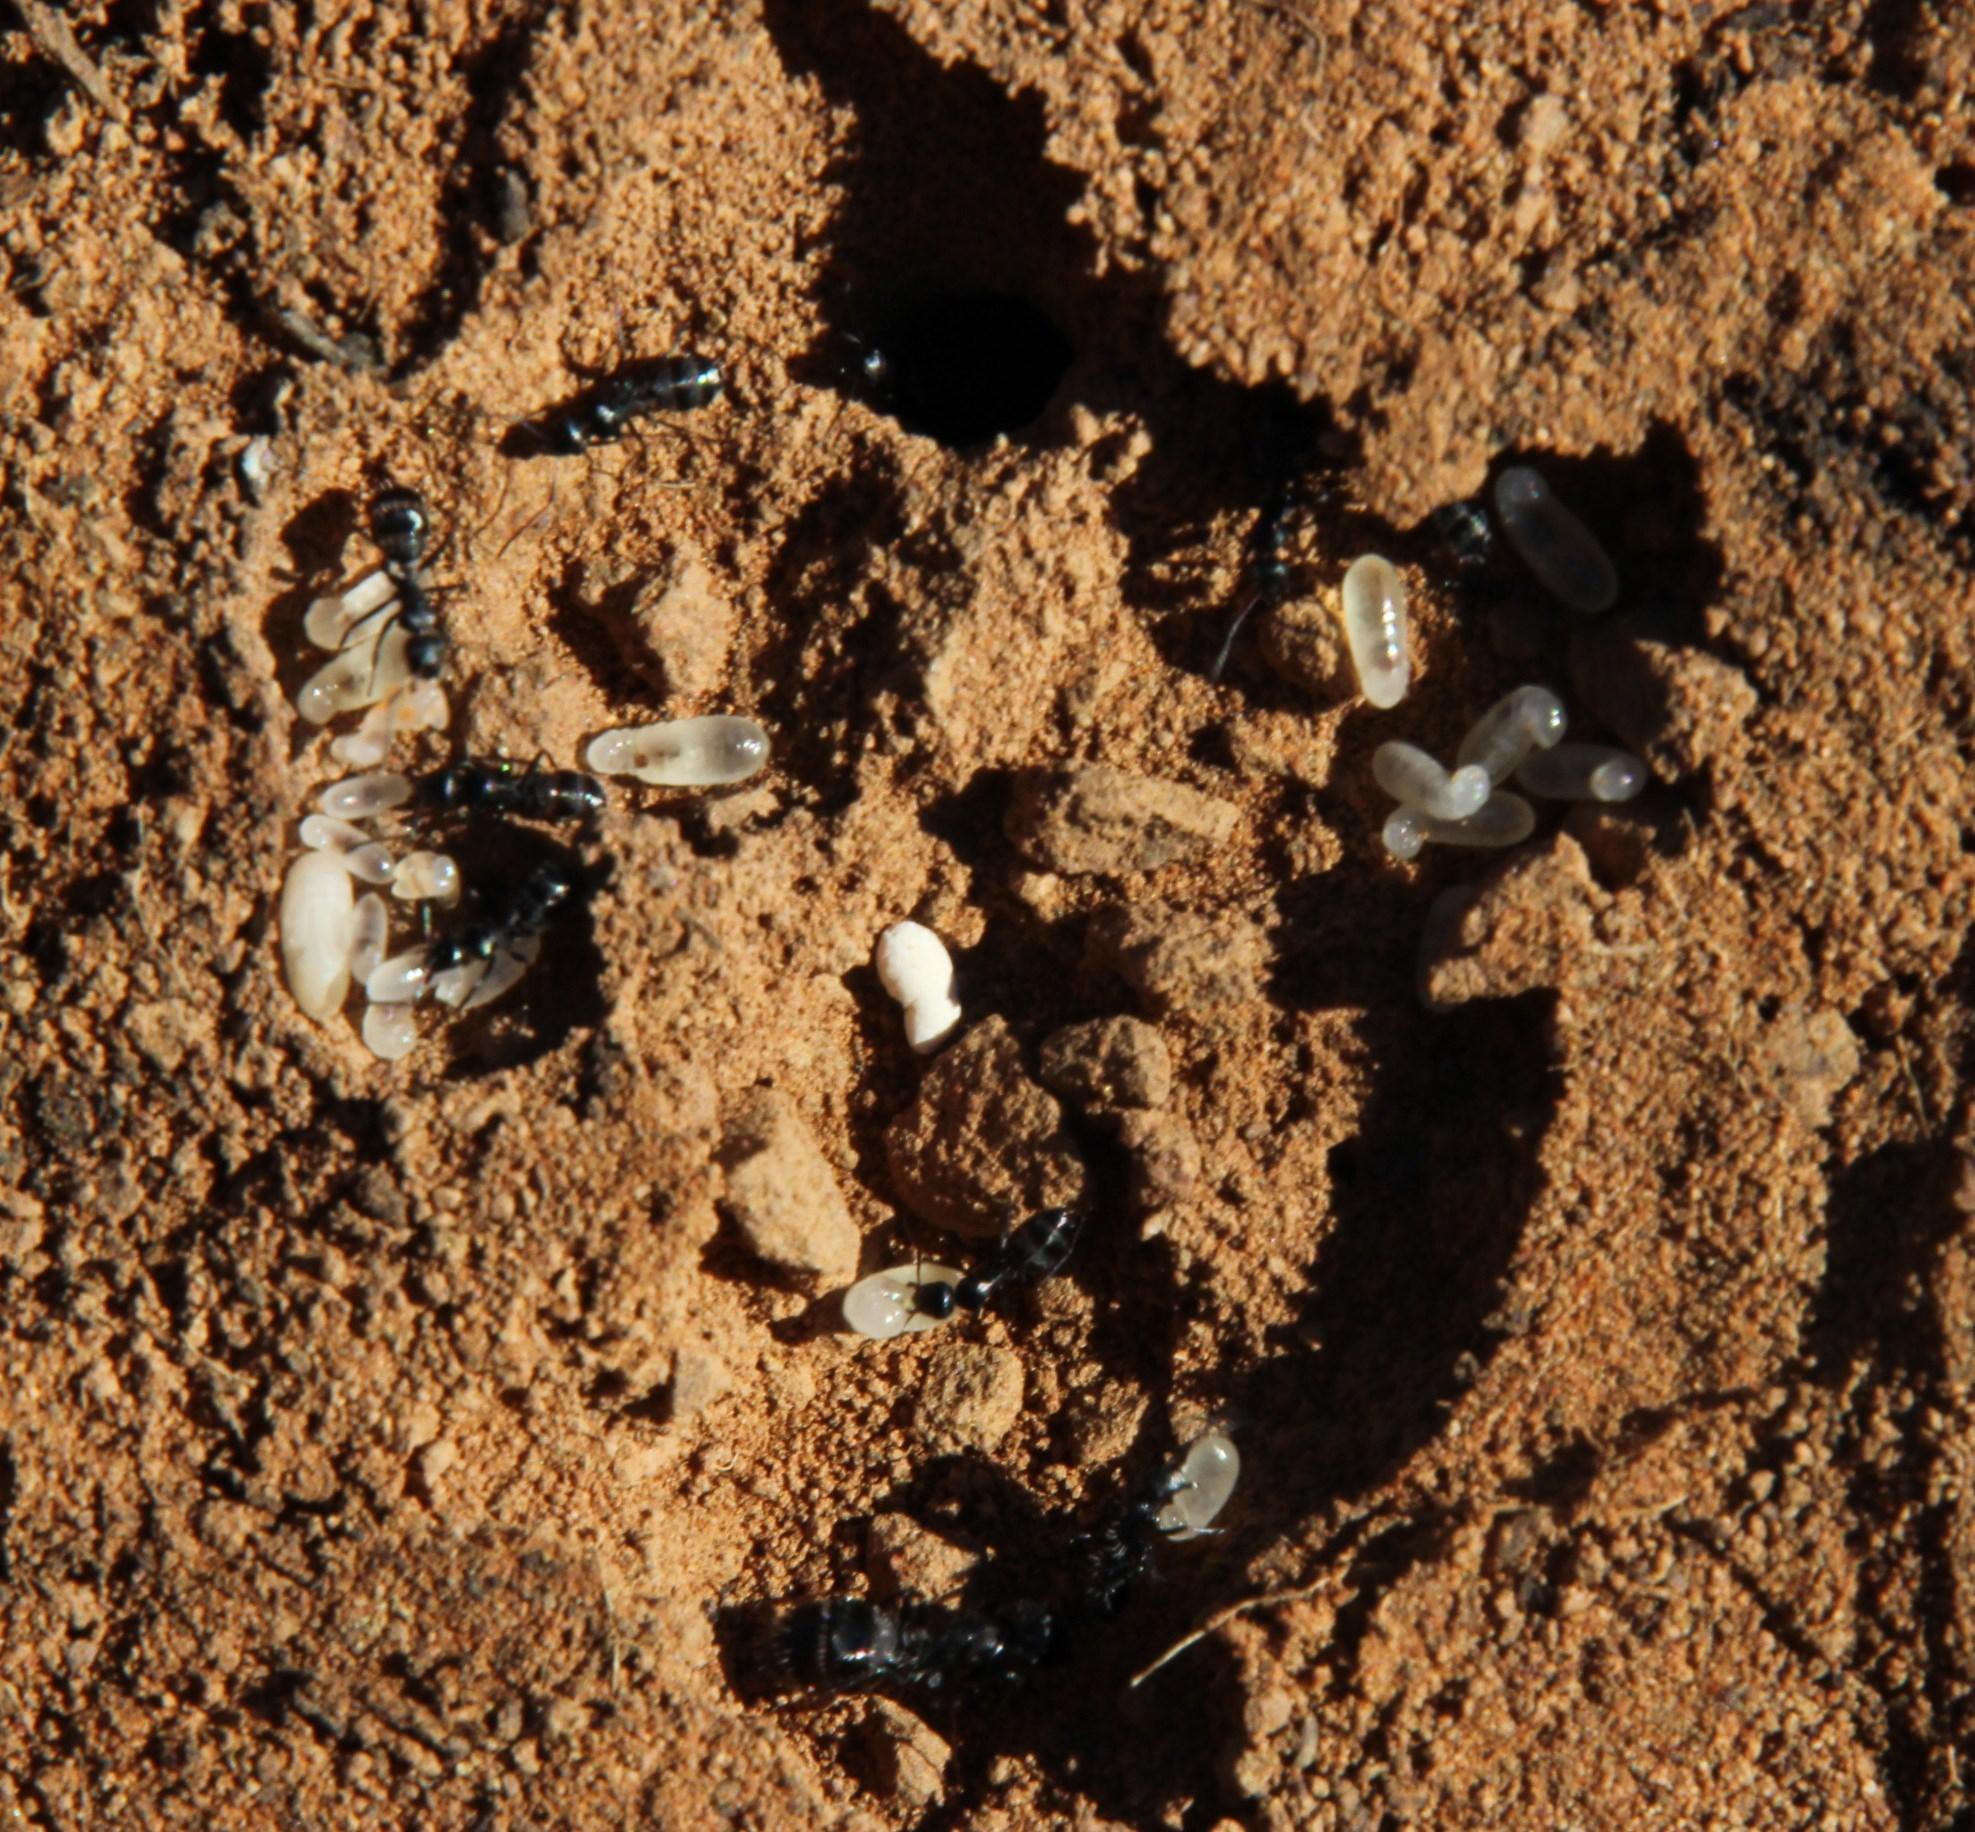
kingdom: Animalia
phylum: Arthropoda
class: Insecta
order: Hymenoptera
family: Formicidae
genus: Camponotus
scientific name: Camponotus niveosetosus
